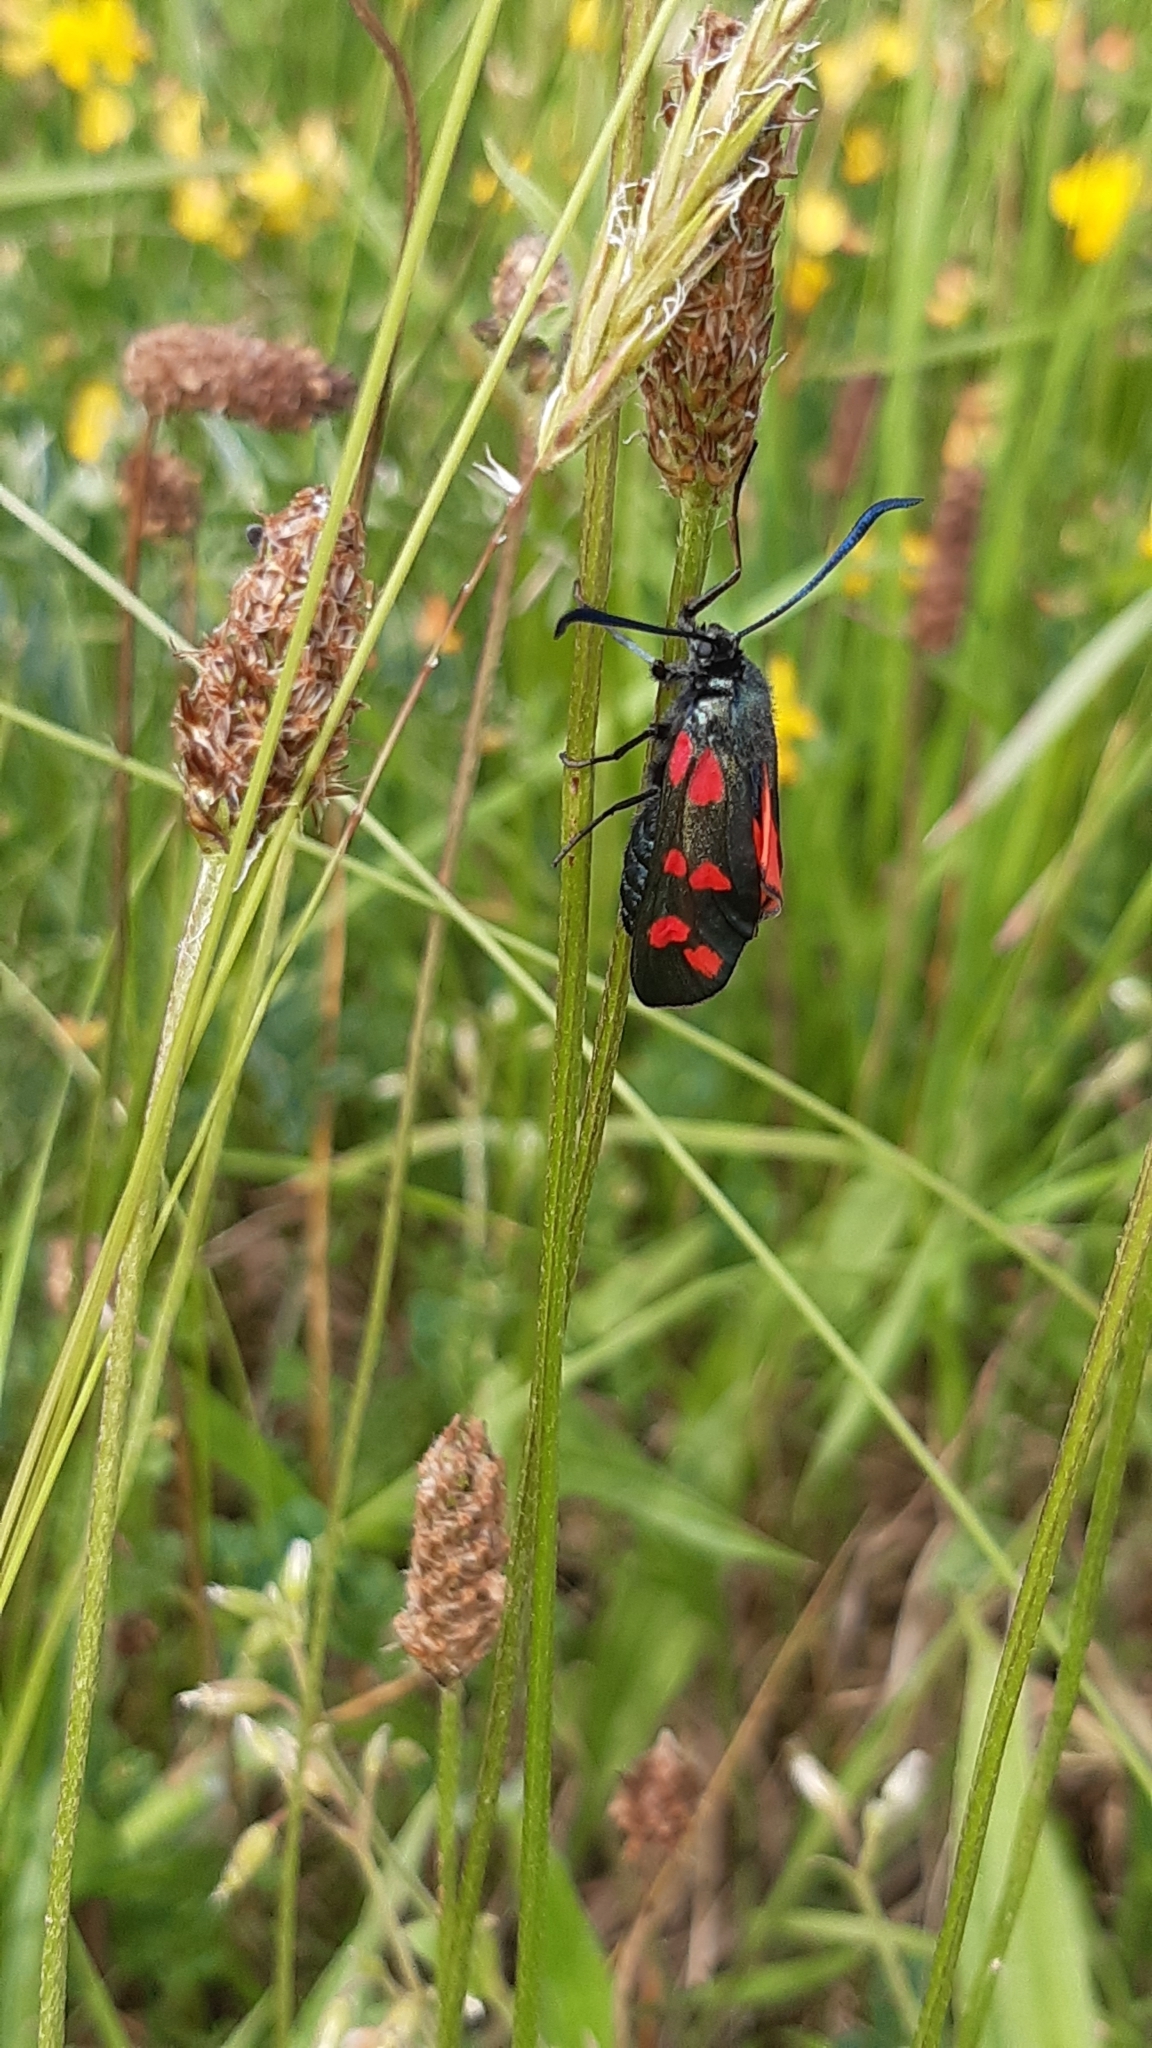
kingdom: Animalia
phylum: Arthropoda
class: Insecta
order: Lepidoptera
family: Zygaenidae
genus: Zygaena
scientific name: Zygaena filipendulae
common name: Six-spot burnet
